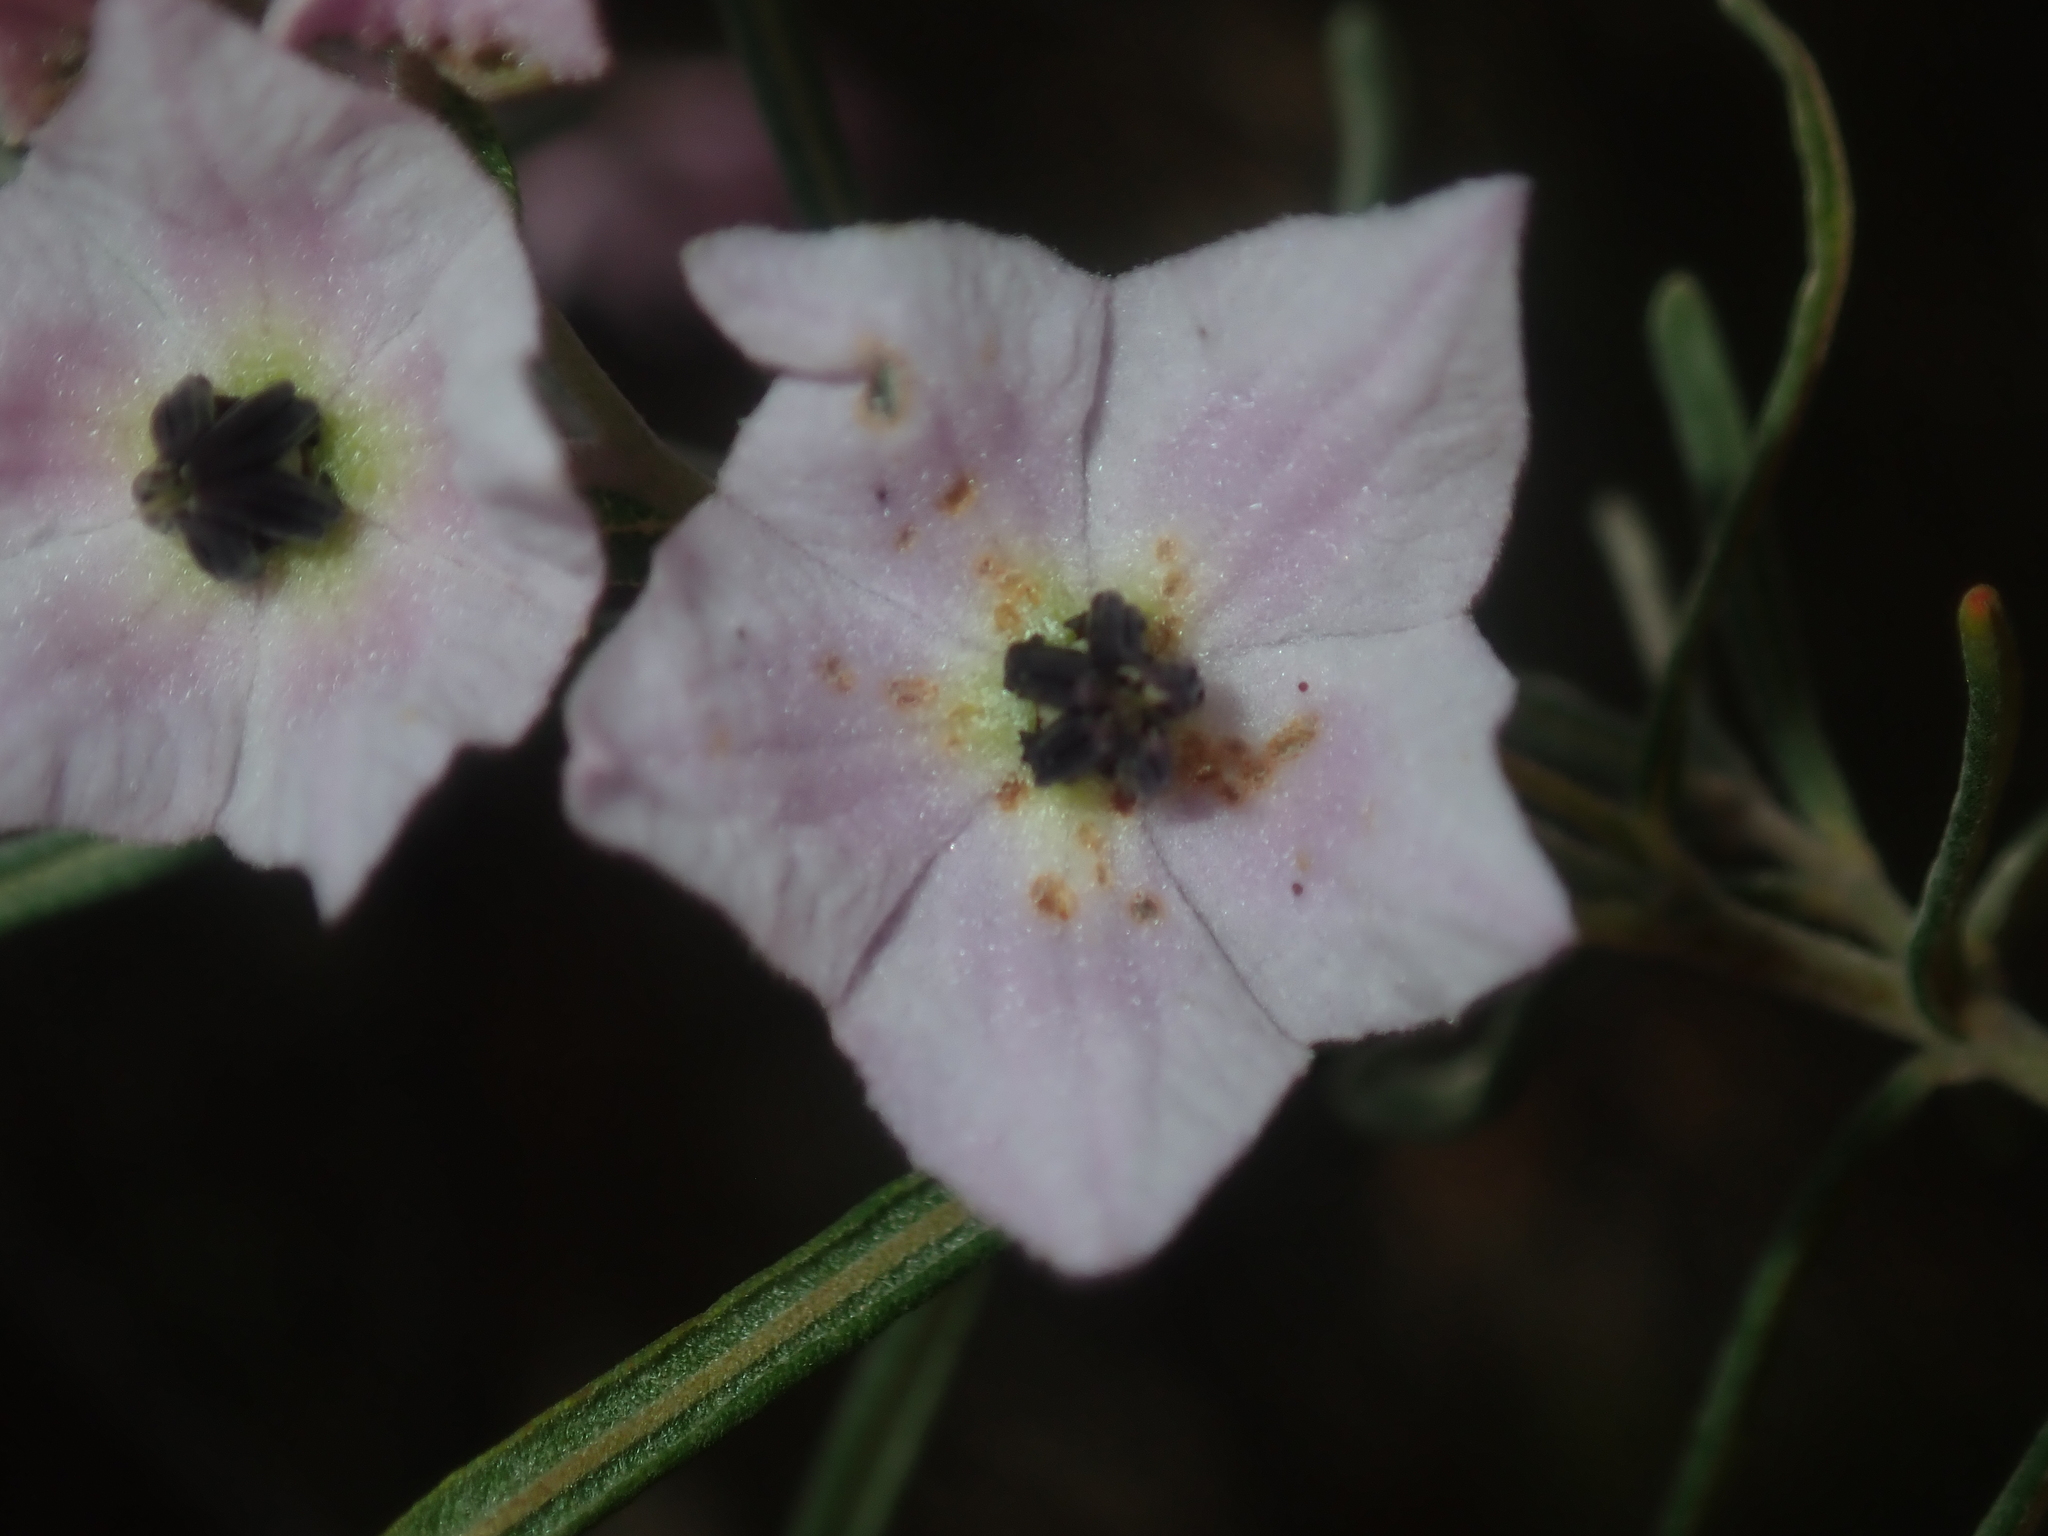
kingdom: Plantae
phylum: Tracheophyta
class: Magnoliopsida
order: Malvales
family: Malvaceae
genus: Guichenotia
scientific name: Guichenotia macrantha
